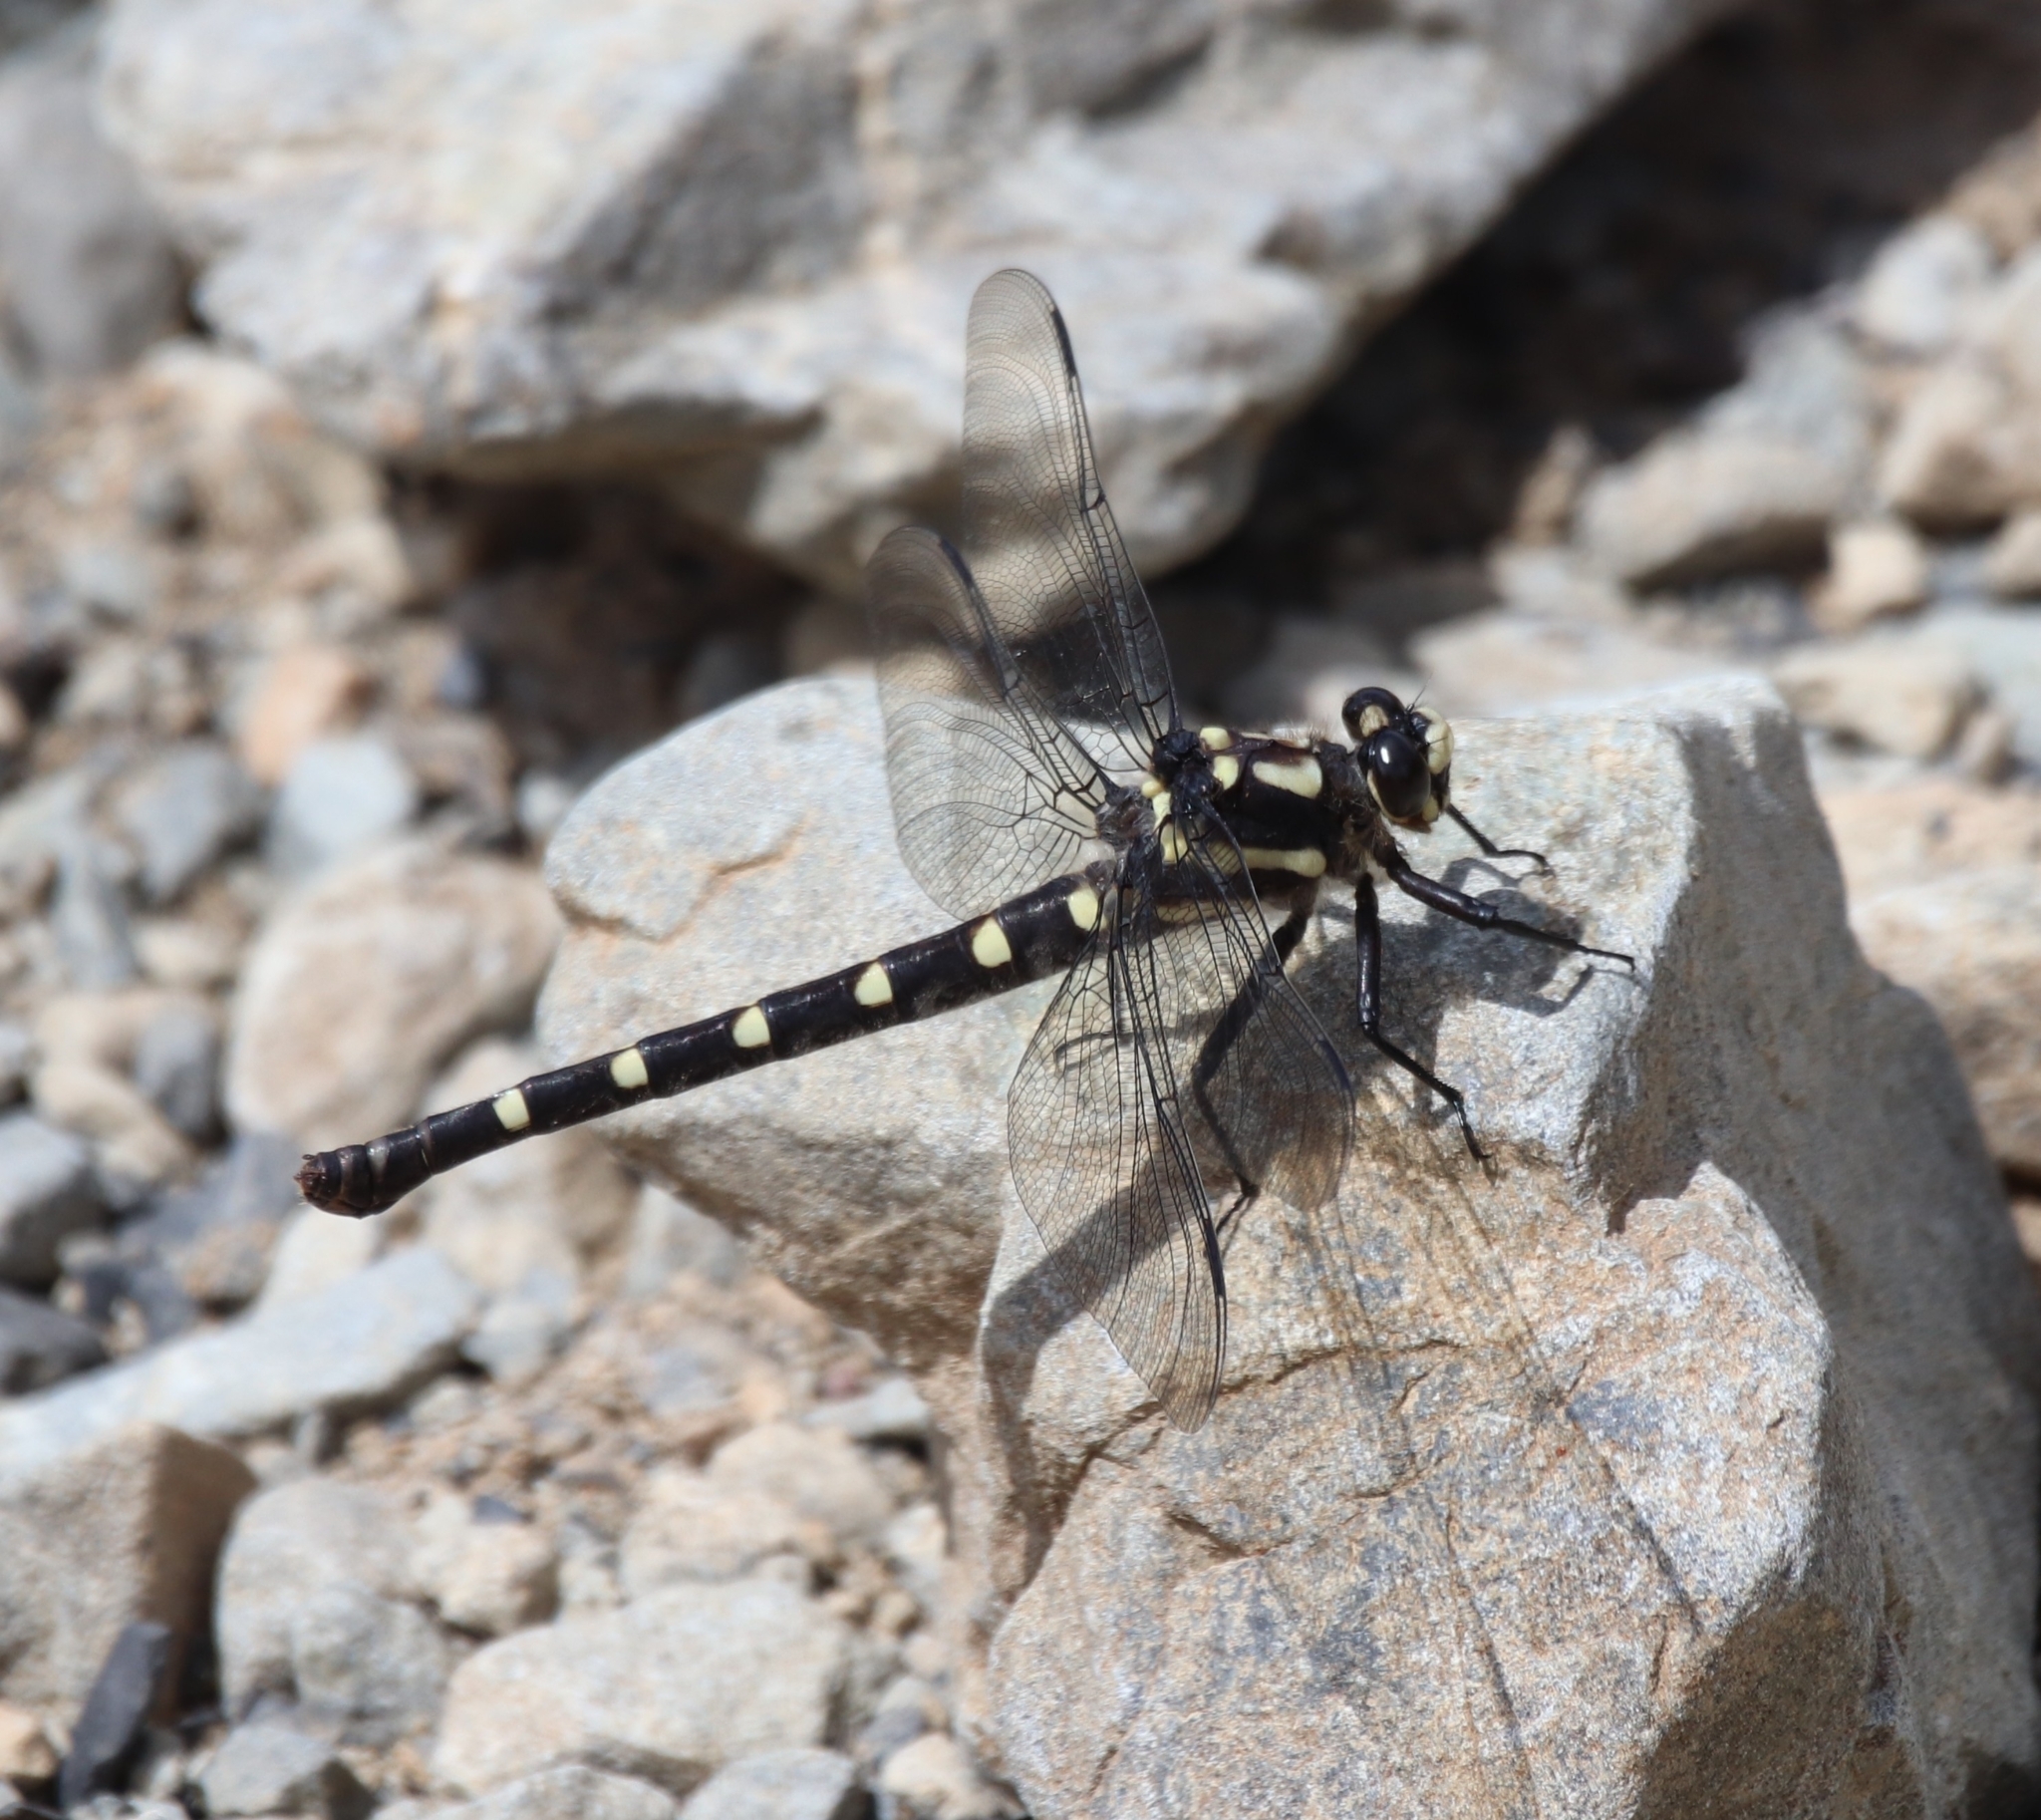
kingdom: Animalia
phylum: Arthropoda
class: Insecta
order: Odonata
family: Petaluridae
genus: Uropetala
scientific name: Uropetala chiltoni
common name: Mountain giant dragonfly
